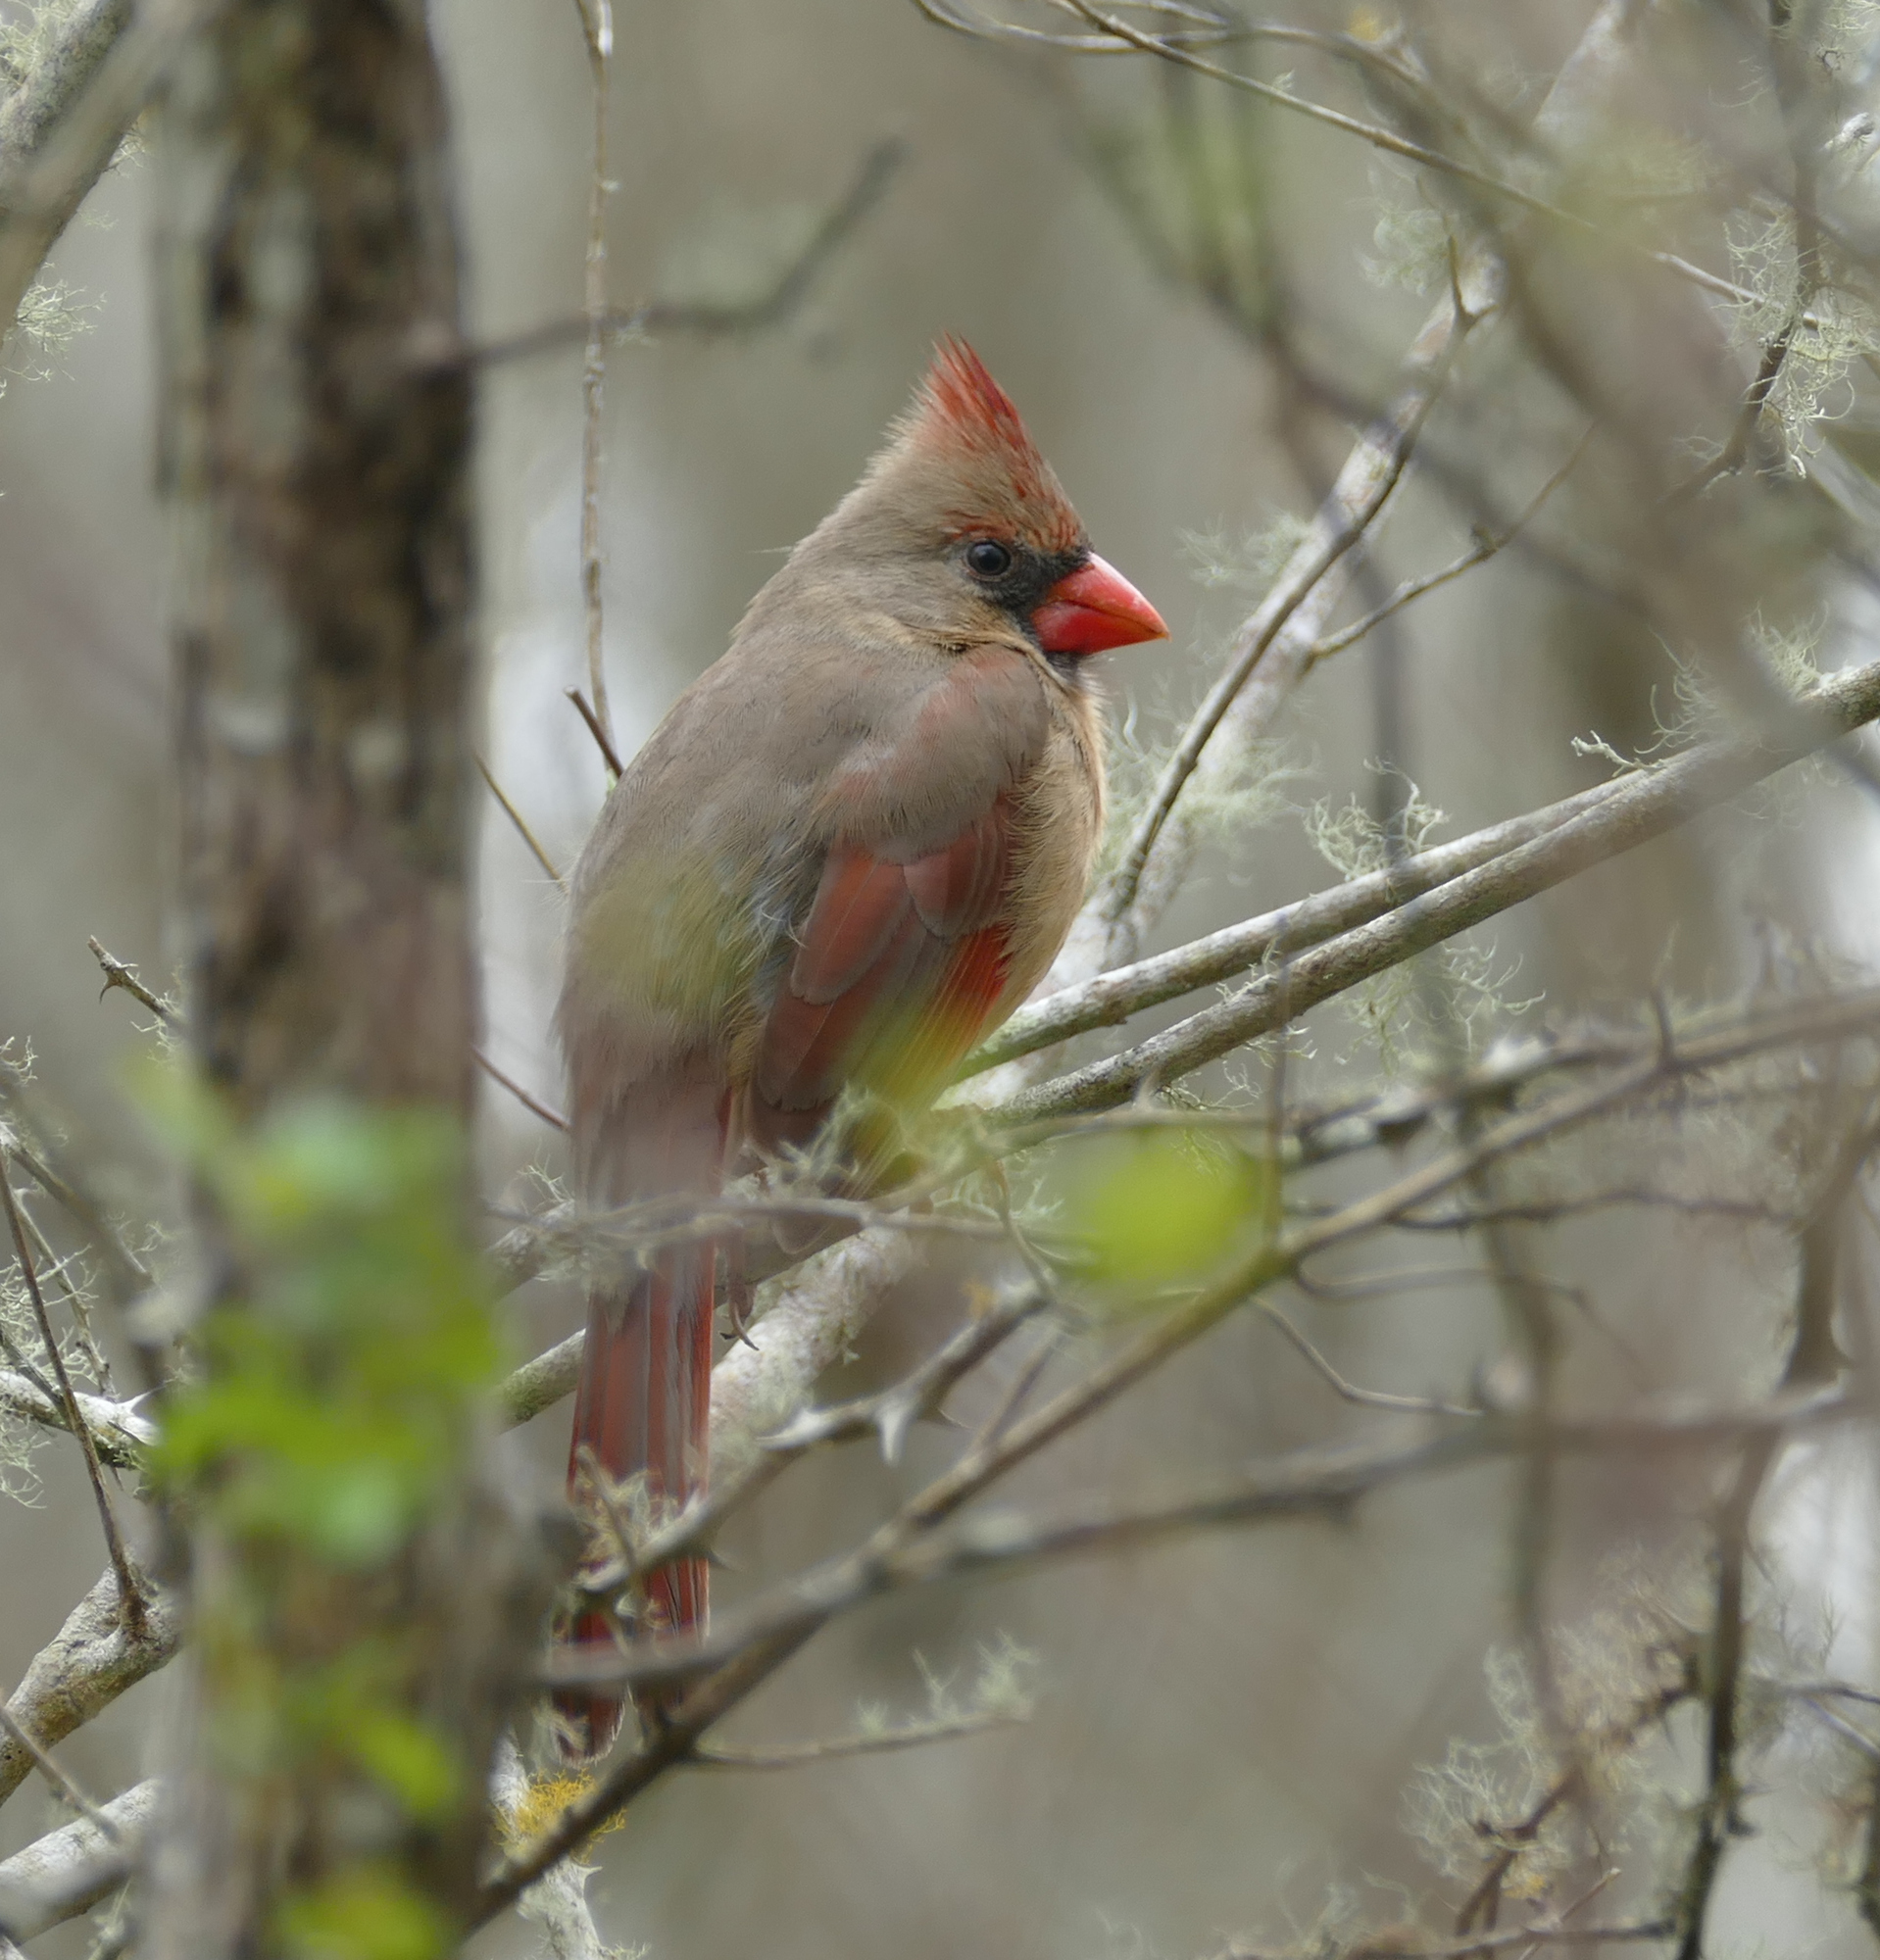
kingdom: Animalia
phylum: Chordata
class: Aves
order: Passeriformes
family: Cardinalidae
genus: Cardinalis
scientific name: Cardinalis cardinalis
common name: Northern cardinal
